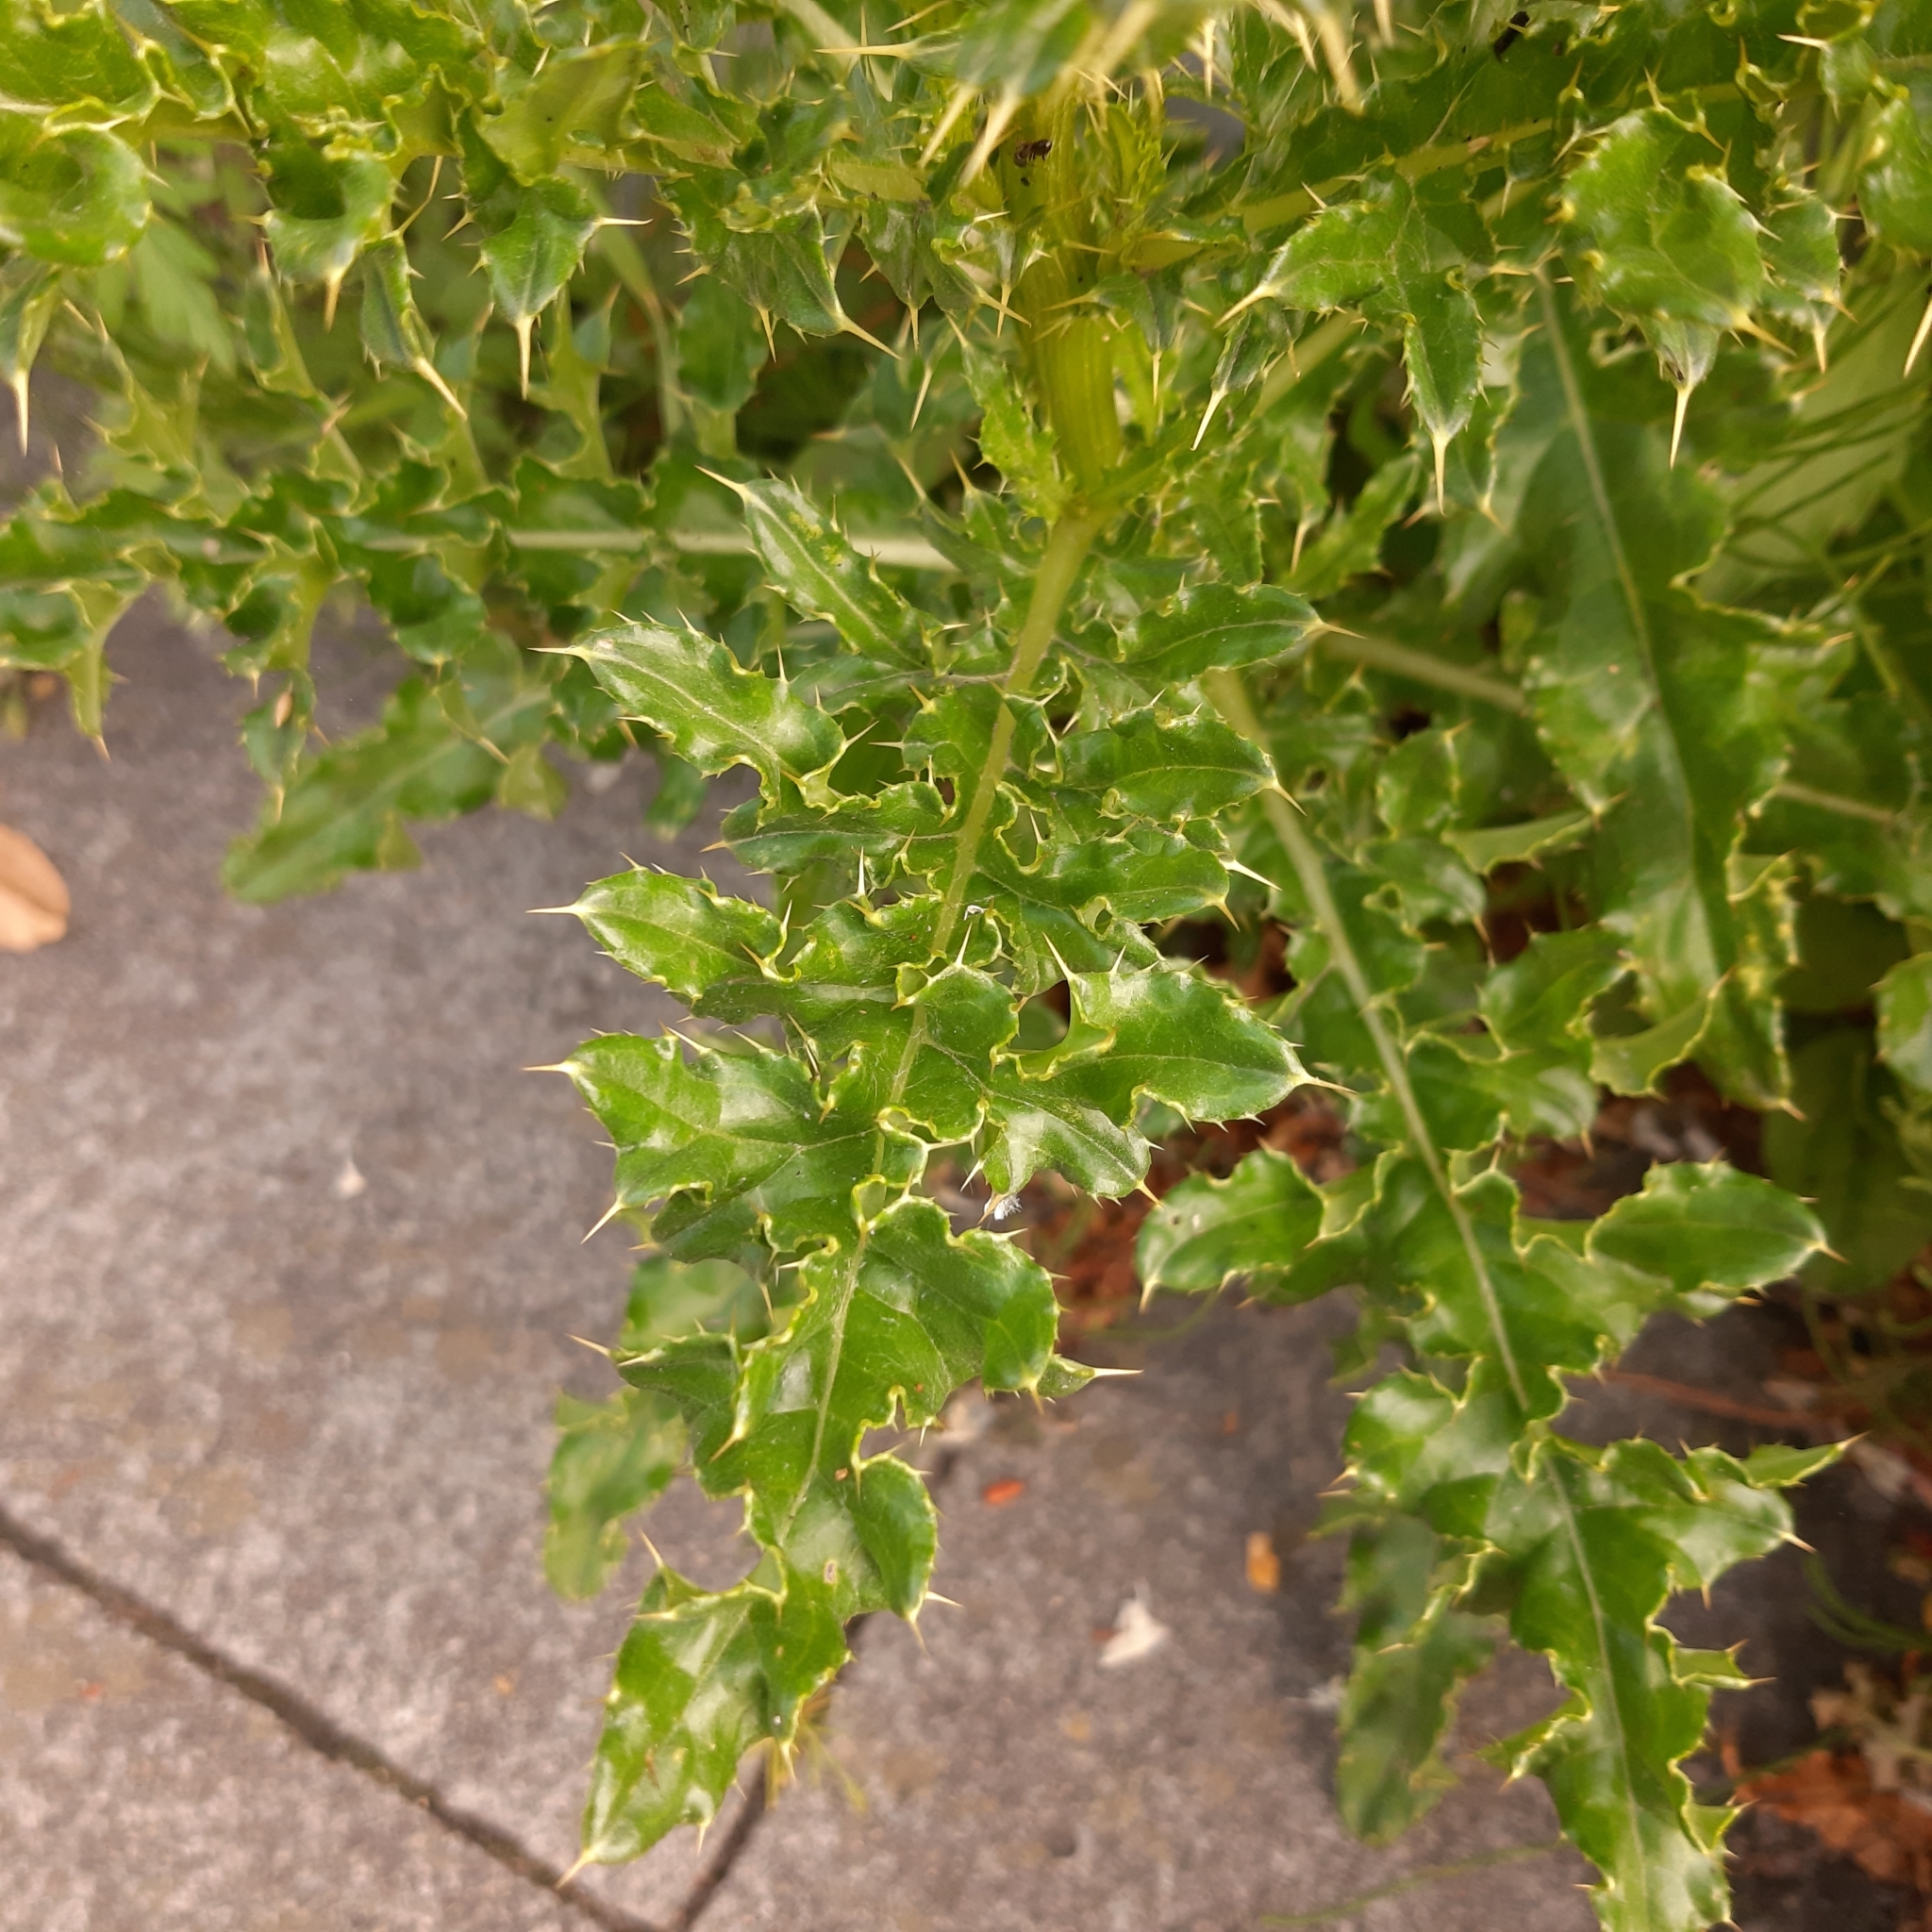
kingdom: Plantae
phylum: Tracheophyta
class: Magnoliopsida
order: Asterales
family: Asteraceae
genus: Cirsium
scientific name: Cirsium arvense
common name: Creeping thistle
